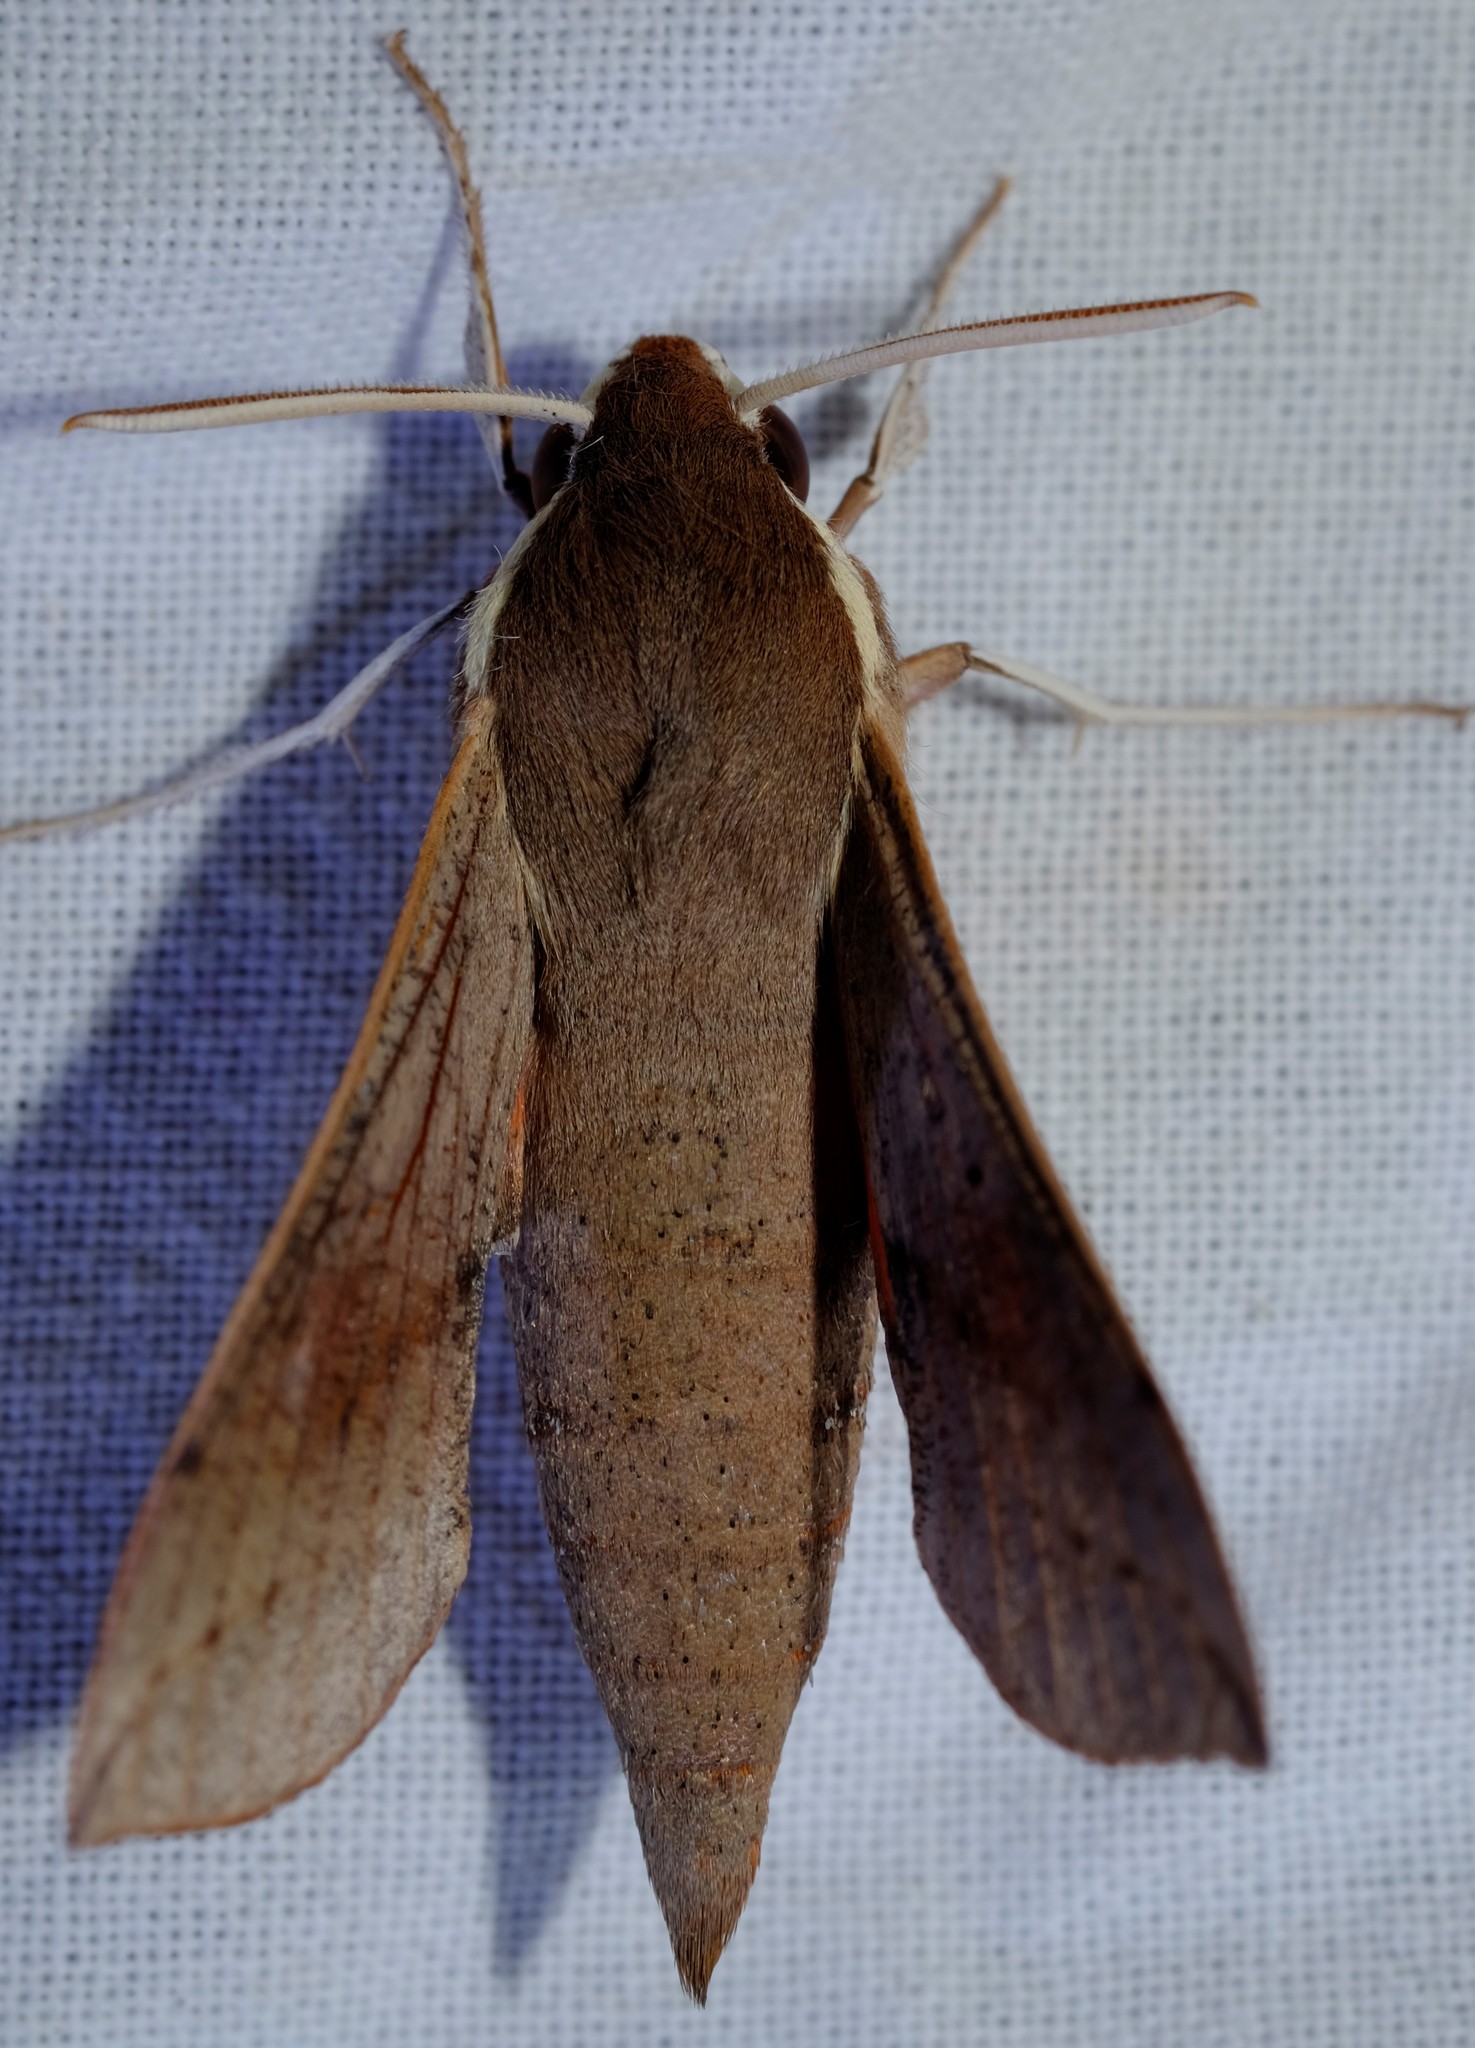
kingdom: Animalia
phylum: Arthropoda
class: Insecta
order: Lepidoptera
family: Sphingidae
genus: Hippotion
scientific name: Hippotion scrofa
